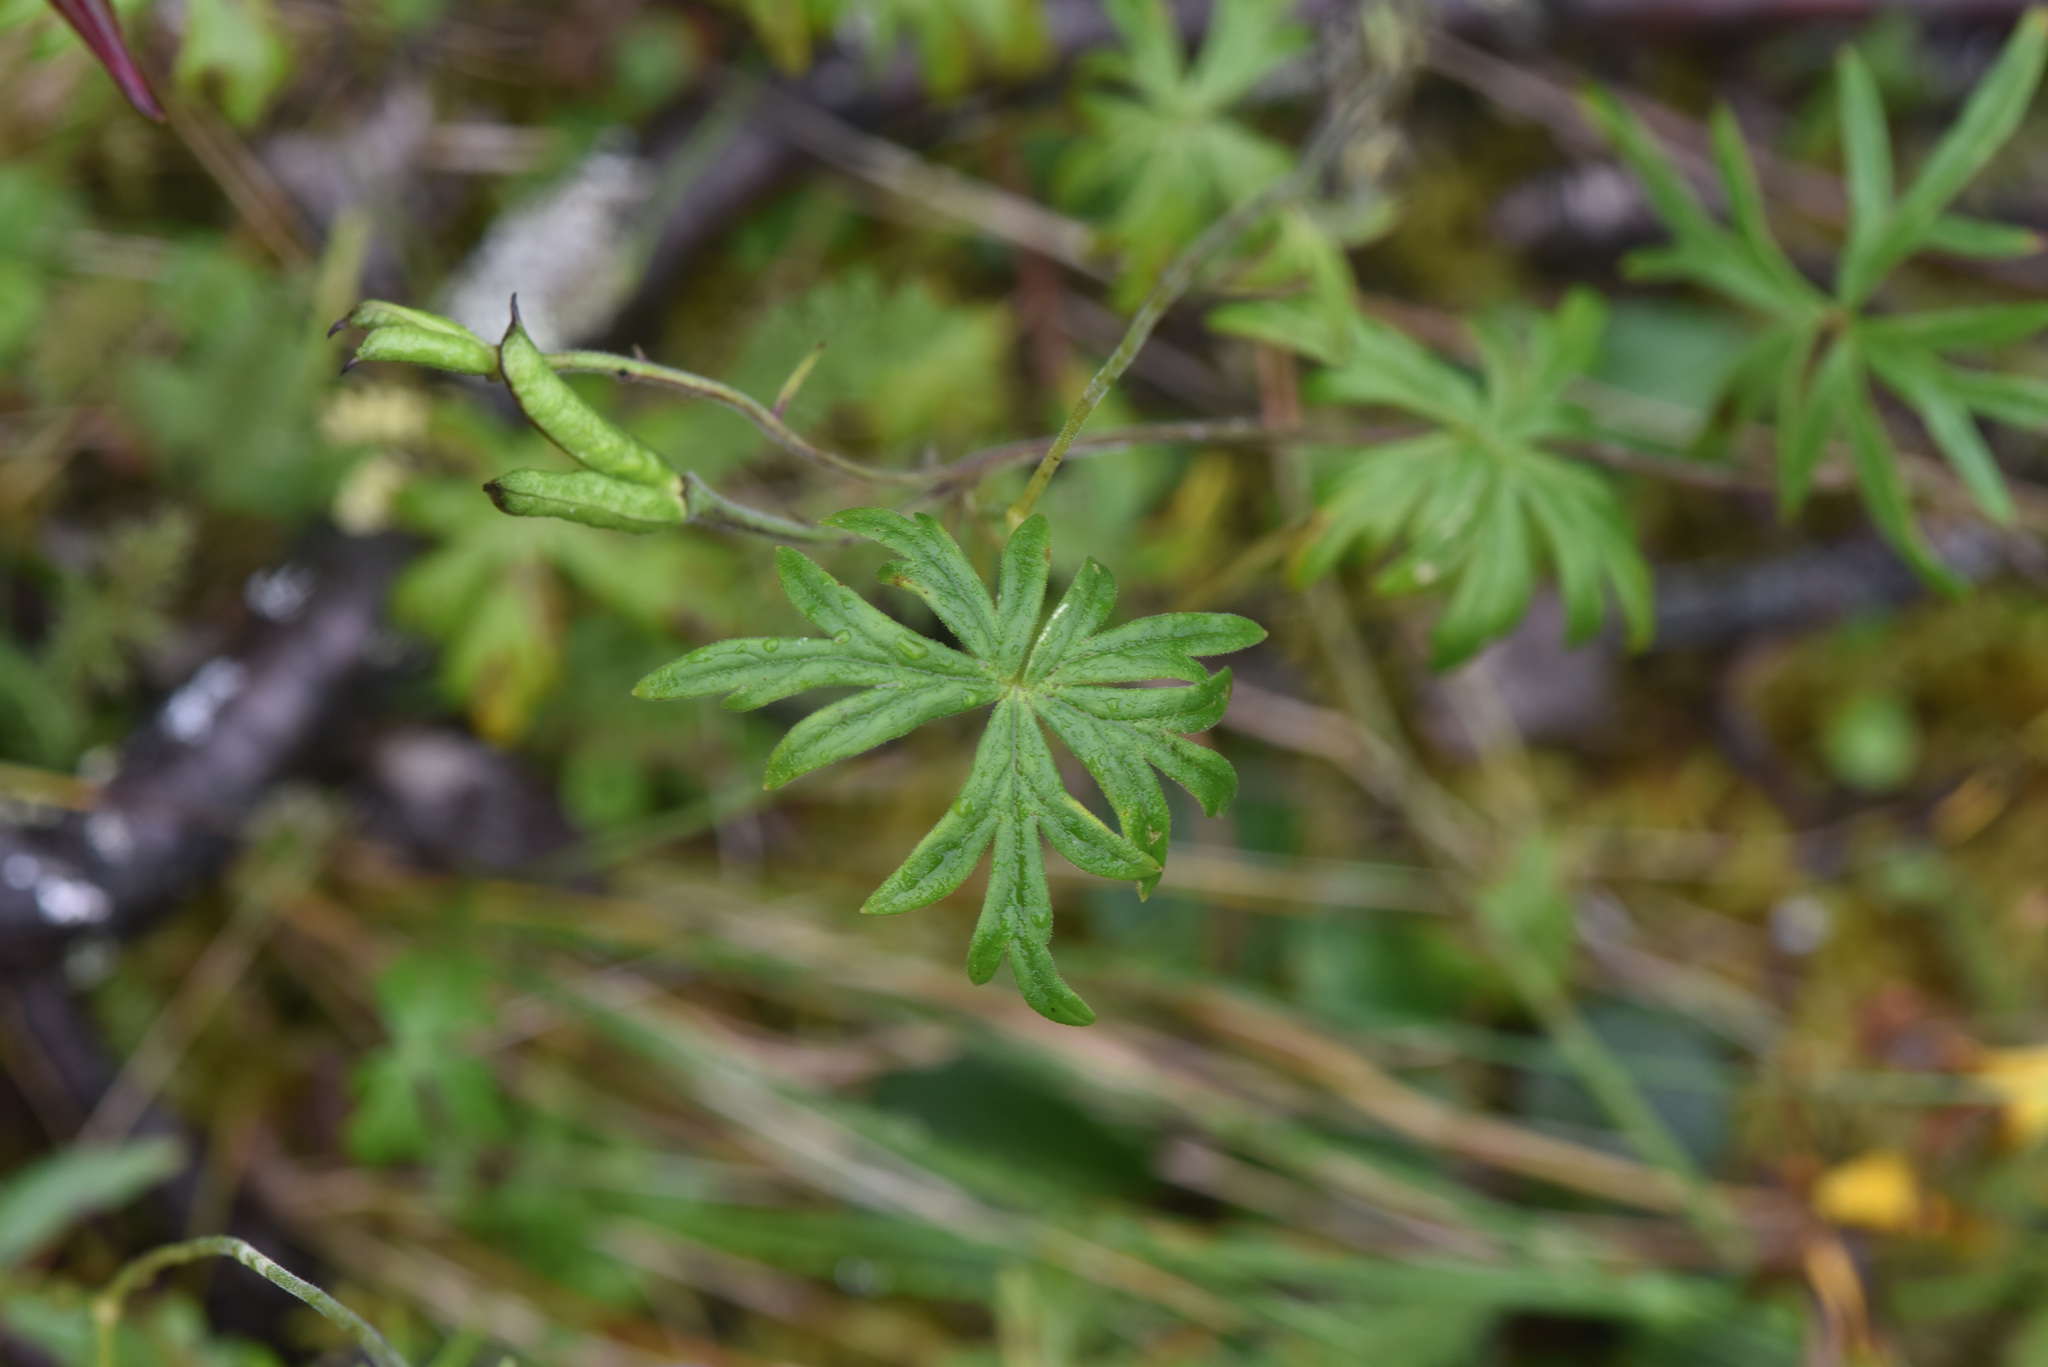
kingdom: Plantae
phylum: Tracheophyta
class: Magnoliopsida
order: Ranunculales
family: Ranunculaceae
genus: Aconitum
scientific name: Aconitum delphiniifolium
